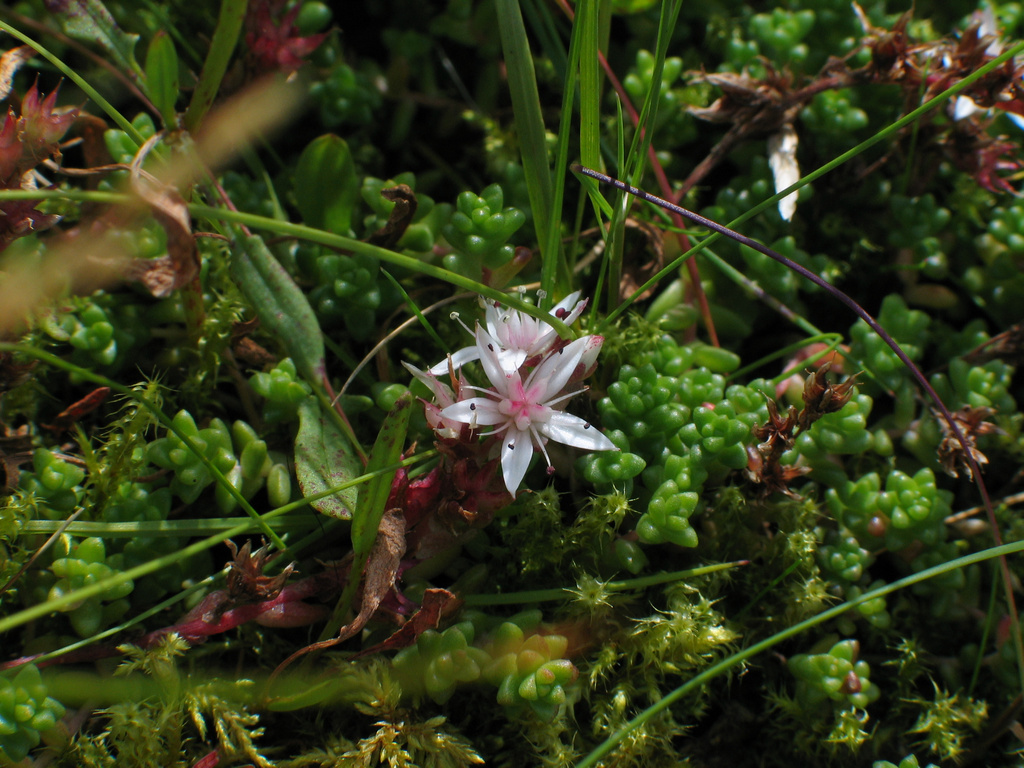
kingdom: Plantae
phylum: Tracheophyta
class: Magnoliopsida
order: Saxifragales
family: Crassulaceae
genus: Sedum
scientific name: Sedum anglicum
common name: English stonecrop
